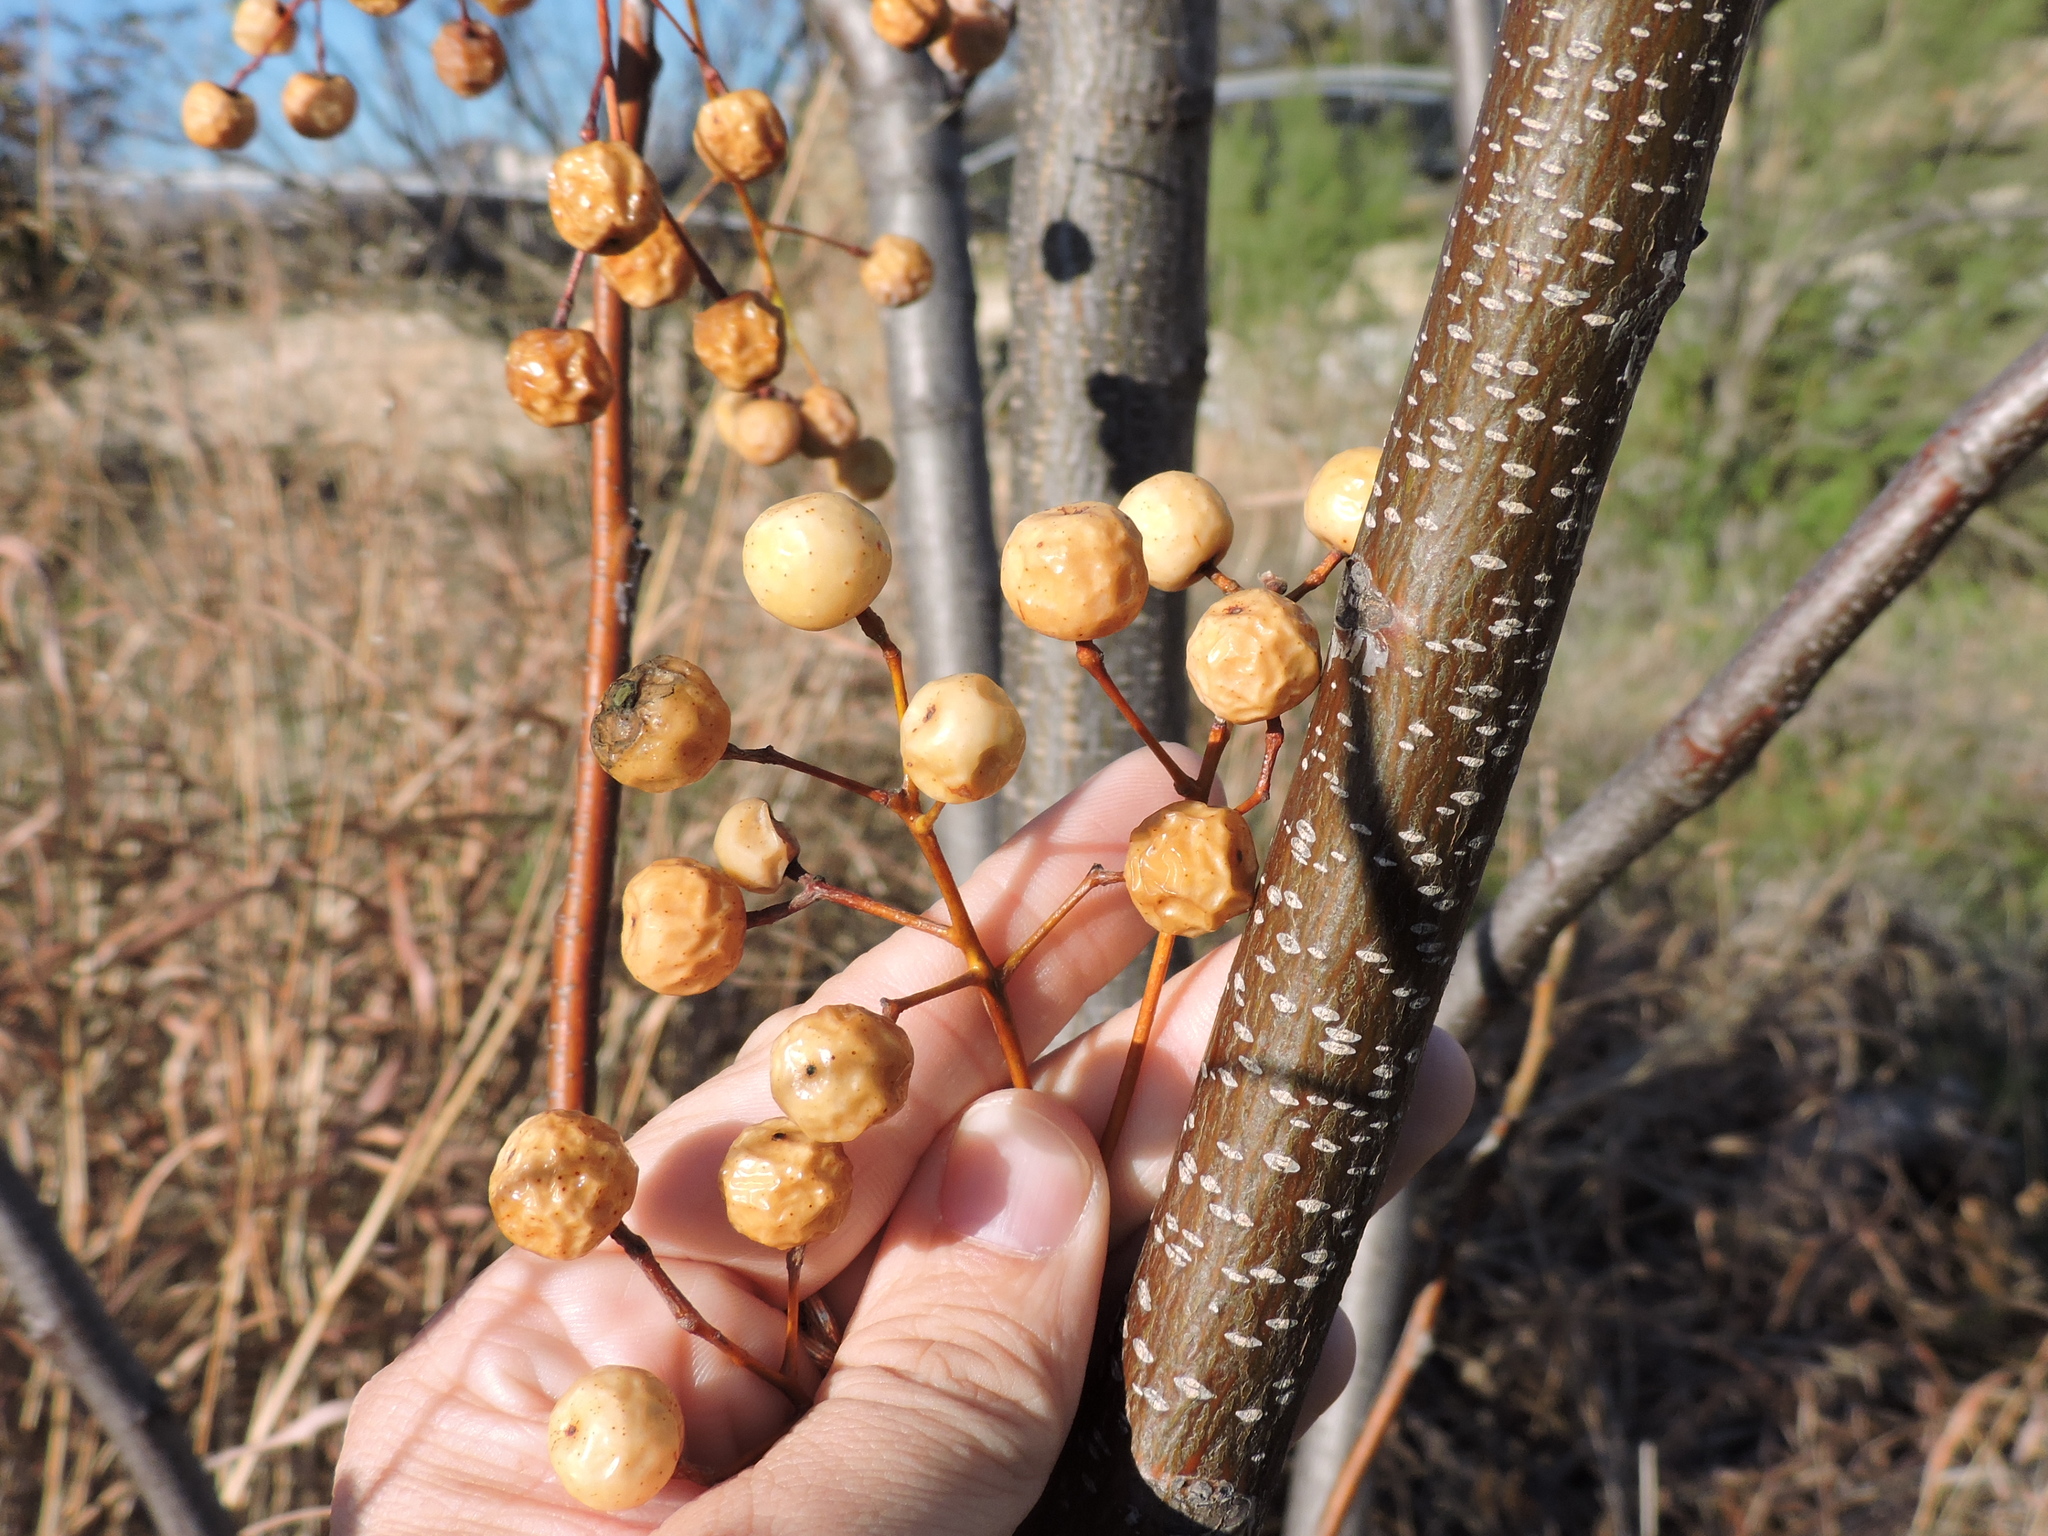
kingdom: Plantae
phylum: Tracheophyta
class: Magnoliopsida
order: Sapindales
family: Meliaceae
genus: Melia
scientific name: Melia azedarach
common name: Chinaberrytree
